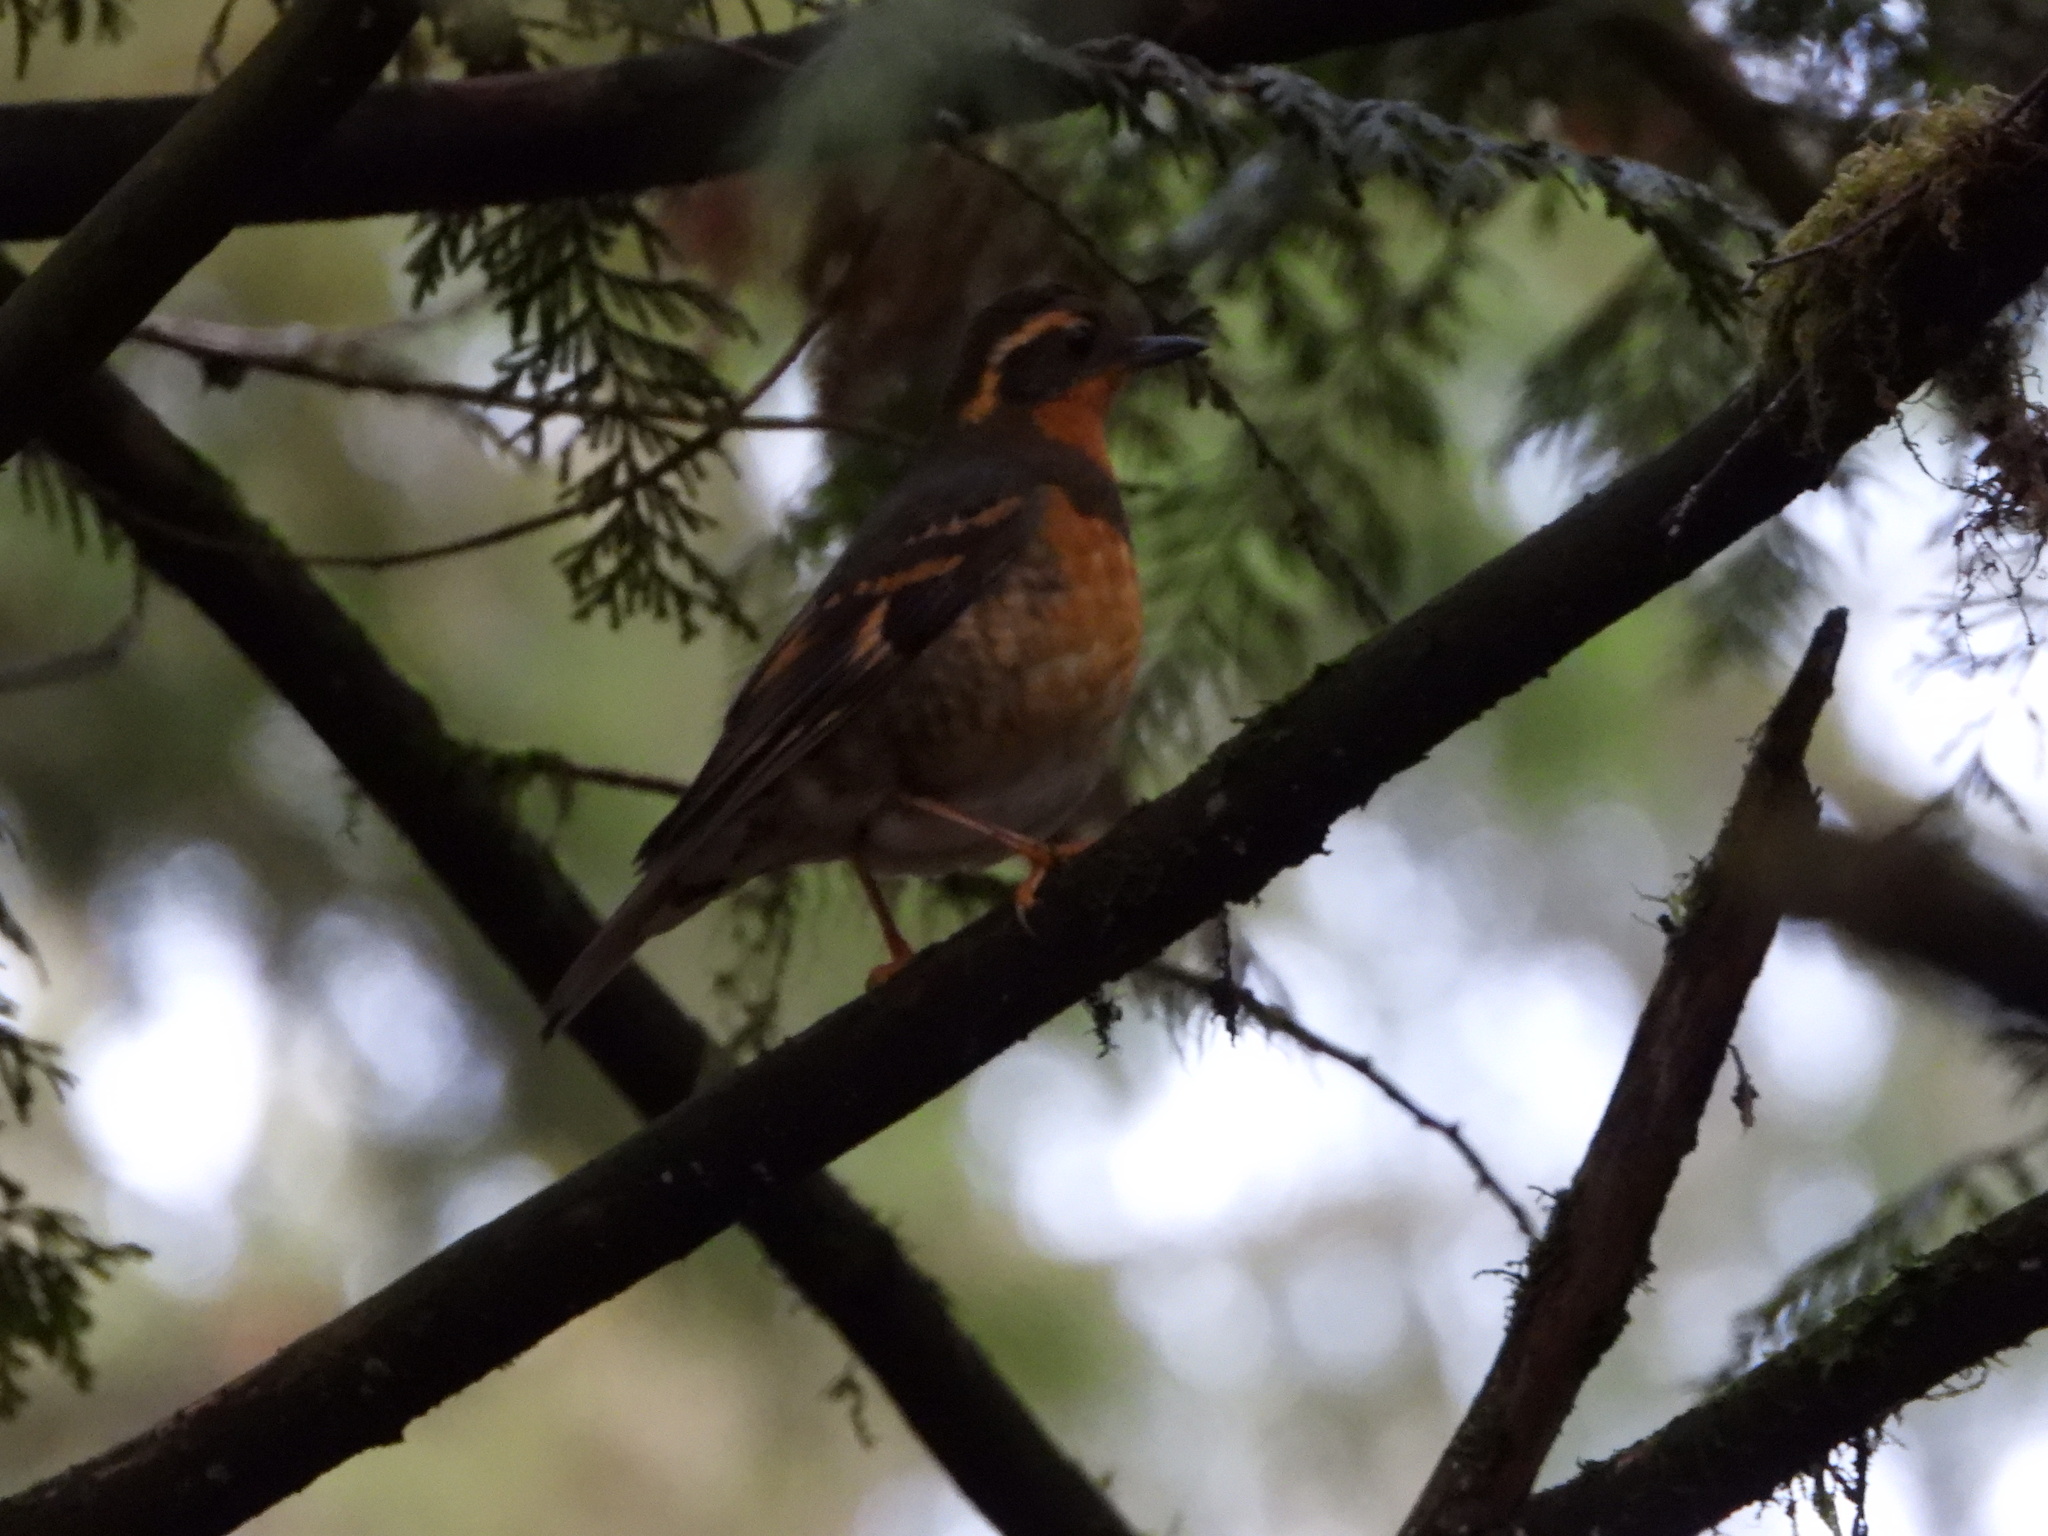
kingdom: Animalia
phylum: Chordata
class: Aves
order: Passeriformes
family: Turdidae
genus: Ixoreus
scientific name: Ixoreus naevius
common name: Varied thrush
